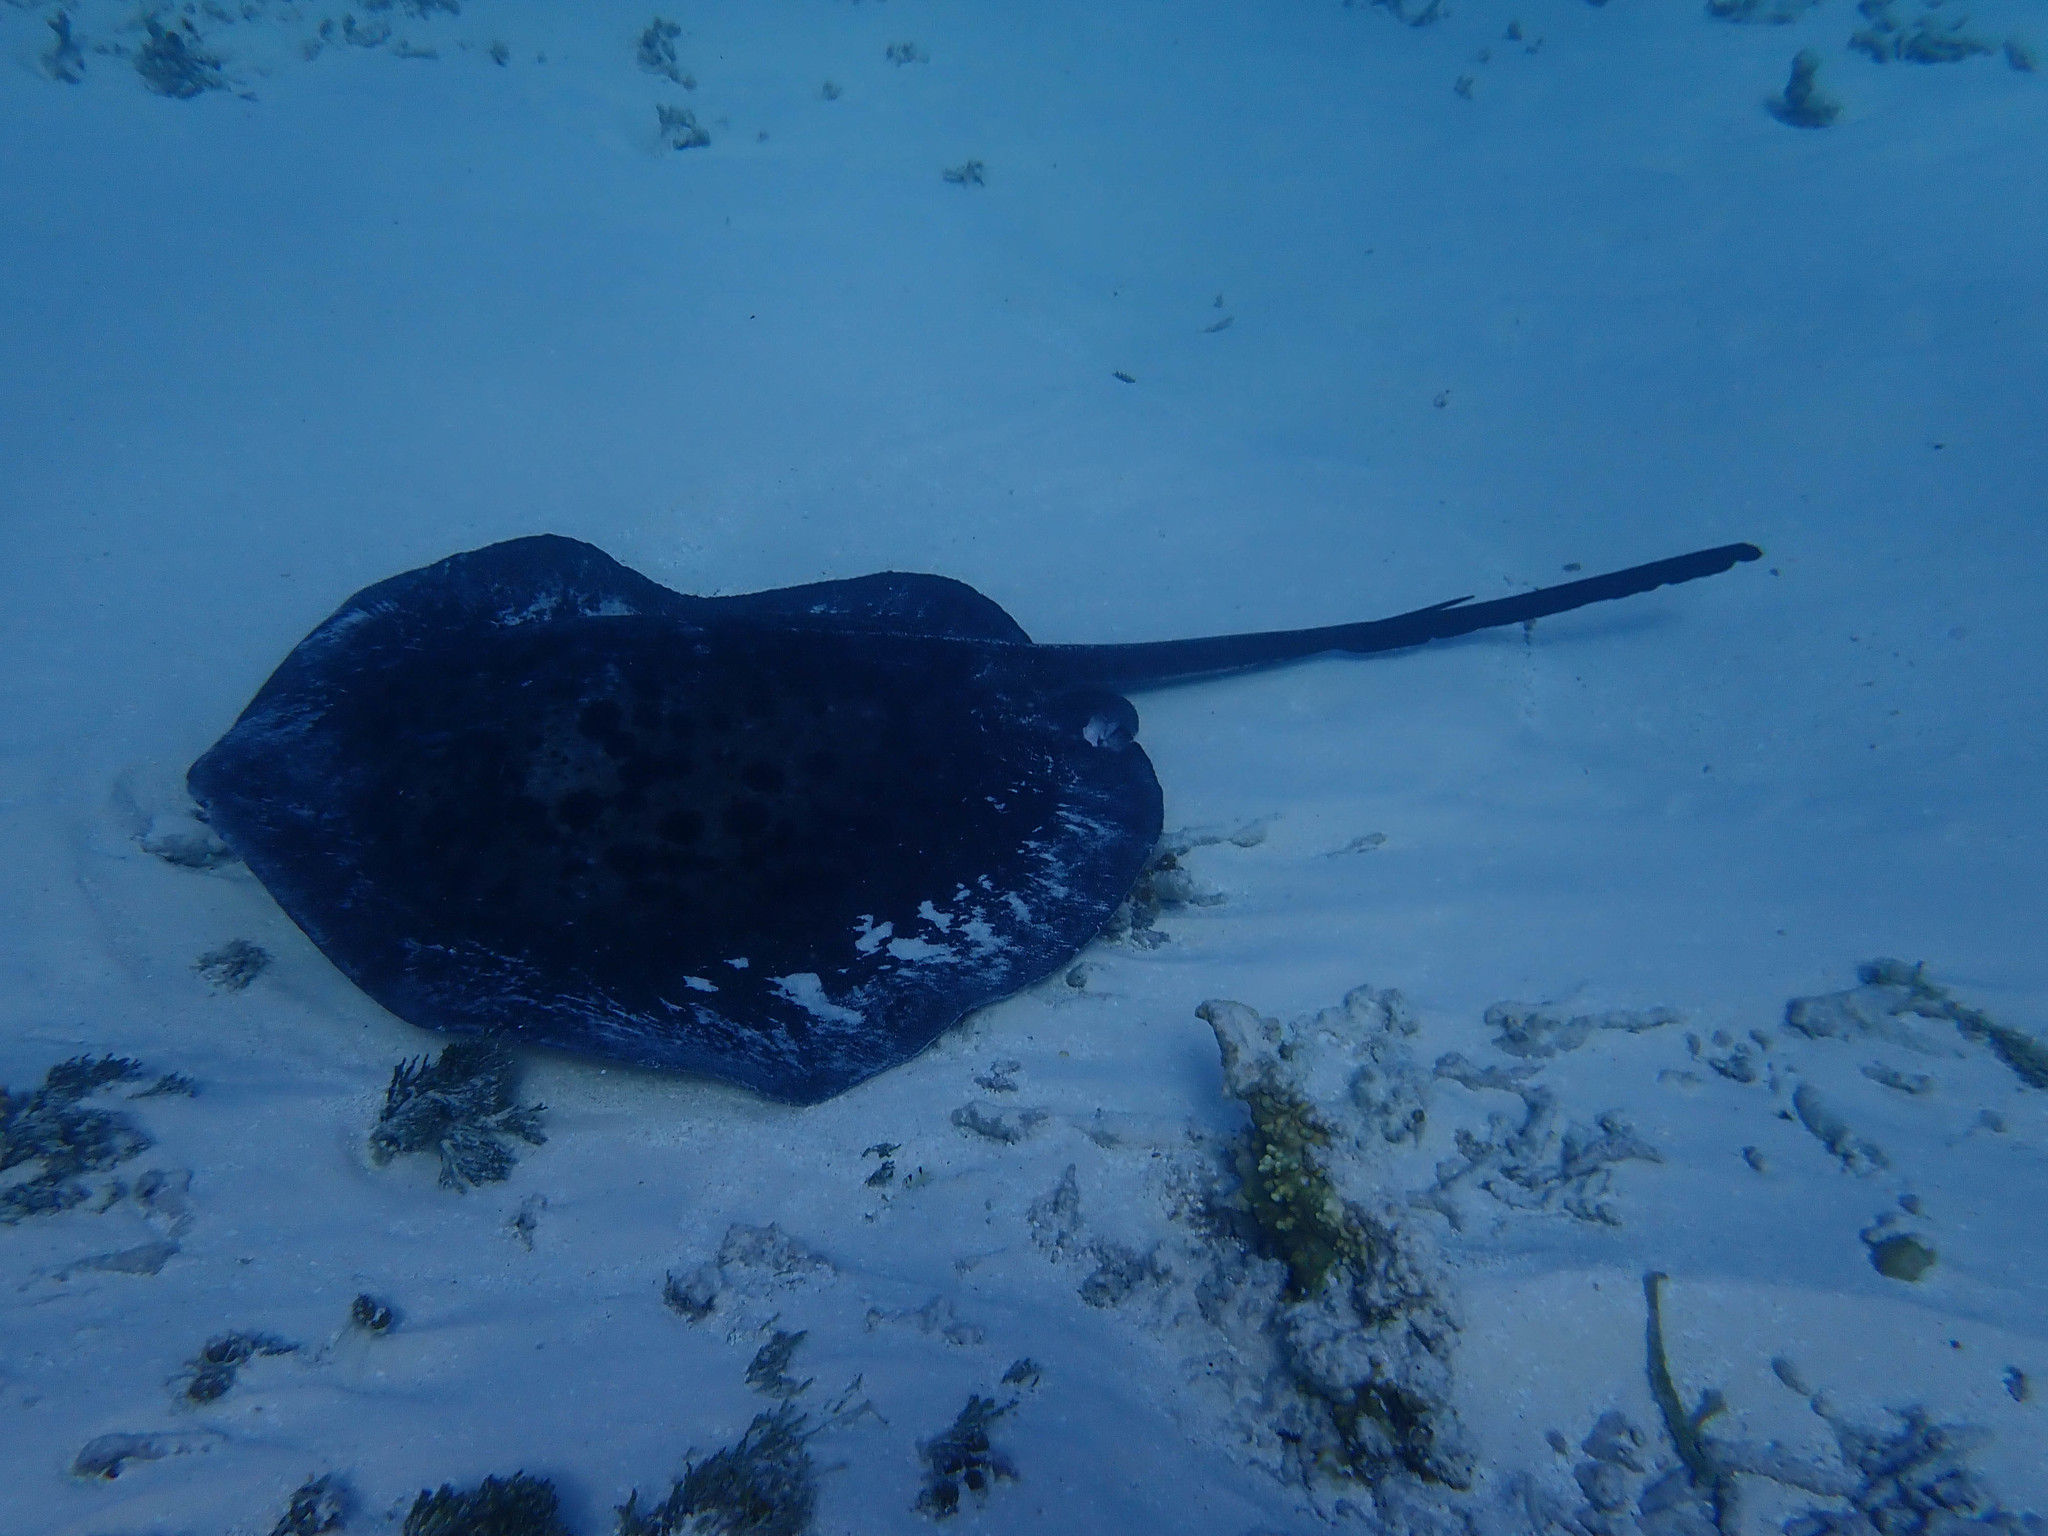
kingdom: Animalia
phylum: Chordata
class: Elasmobranchii
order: Myliobatiformes
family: Dasyatidae
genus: Taeniurops
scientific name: Taeniurops meyeni
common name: Black-blotched stingray
